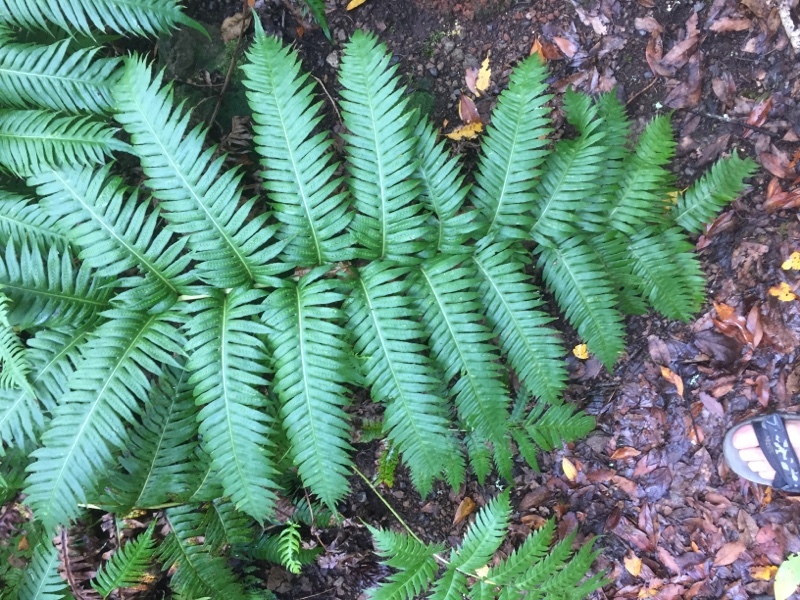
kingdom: Plantae
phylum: Tracheophyta
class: Polypodiopsida
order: Polypodiales
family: Blechnaceae
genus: Woodwardia
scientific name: Woodwardia radicans
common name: Rooting chainfern
